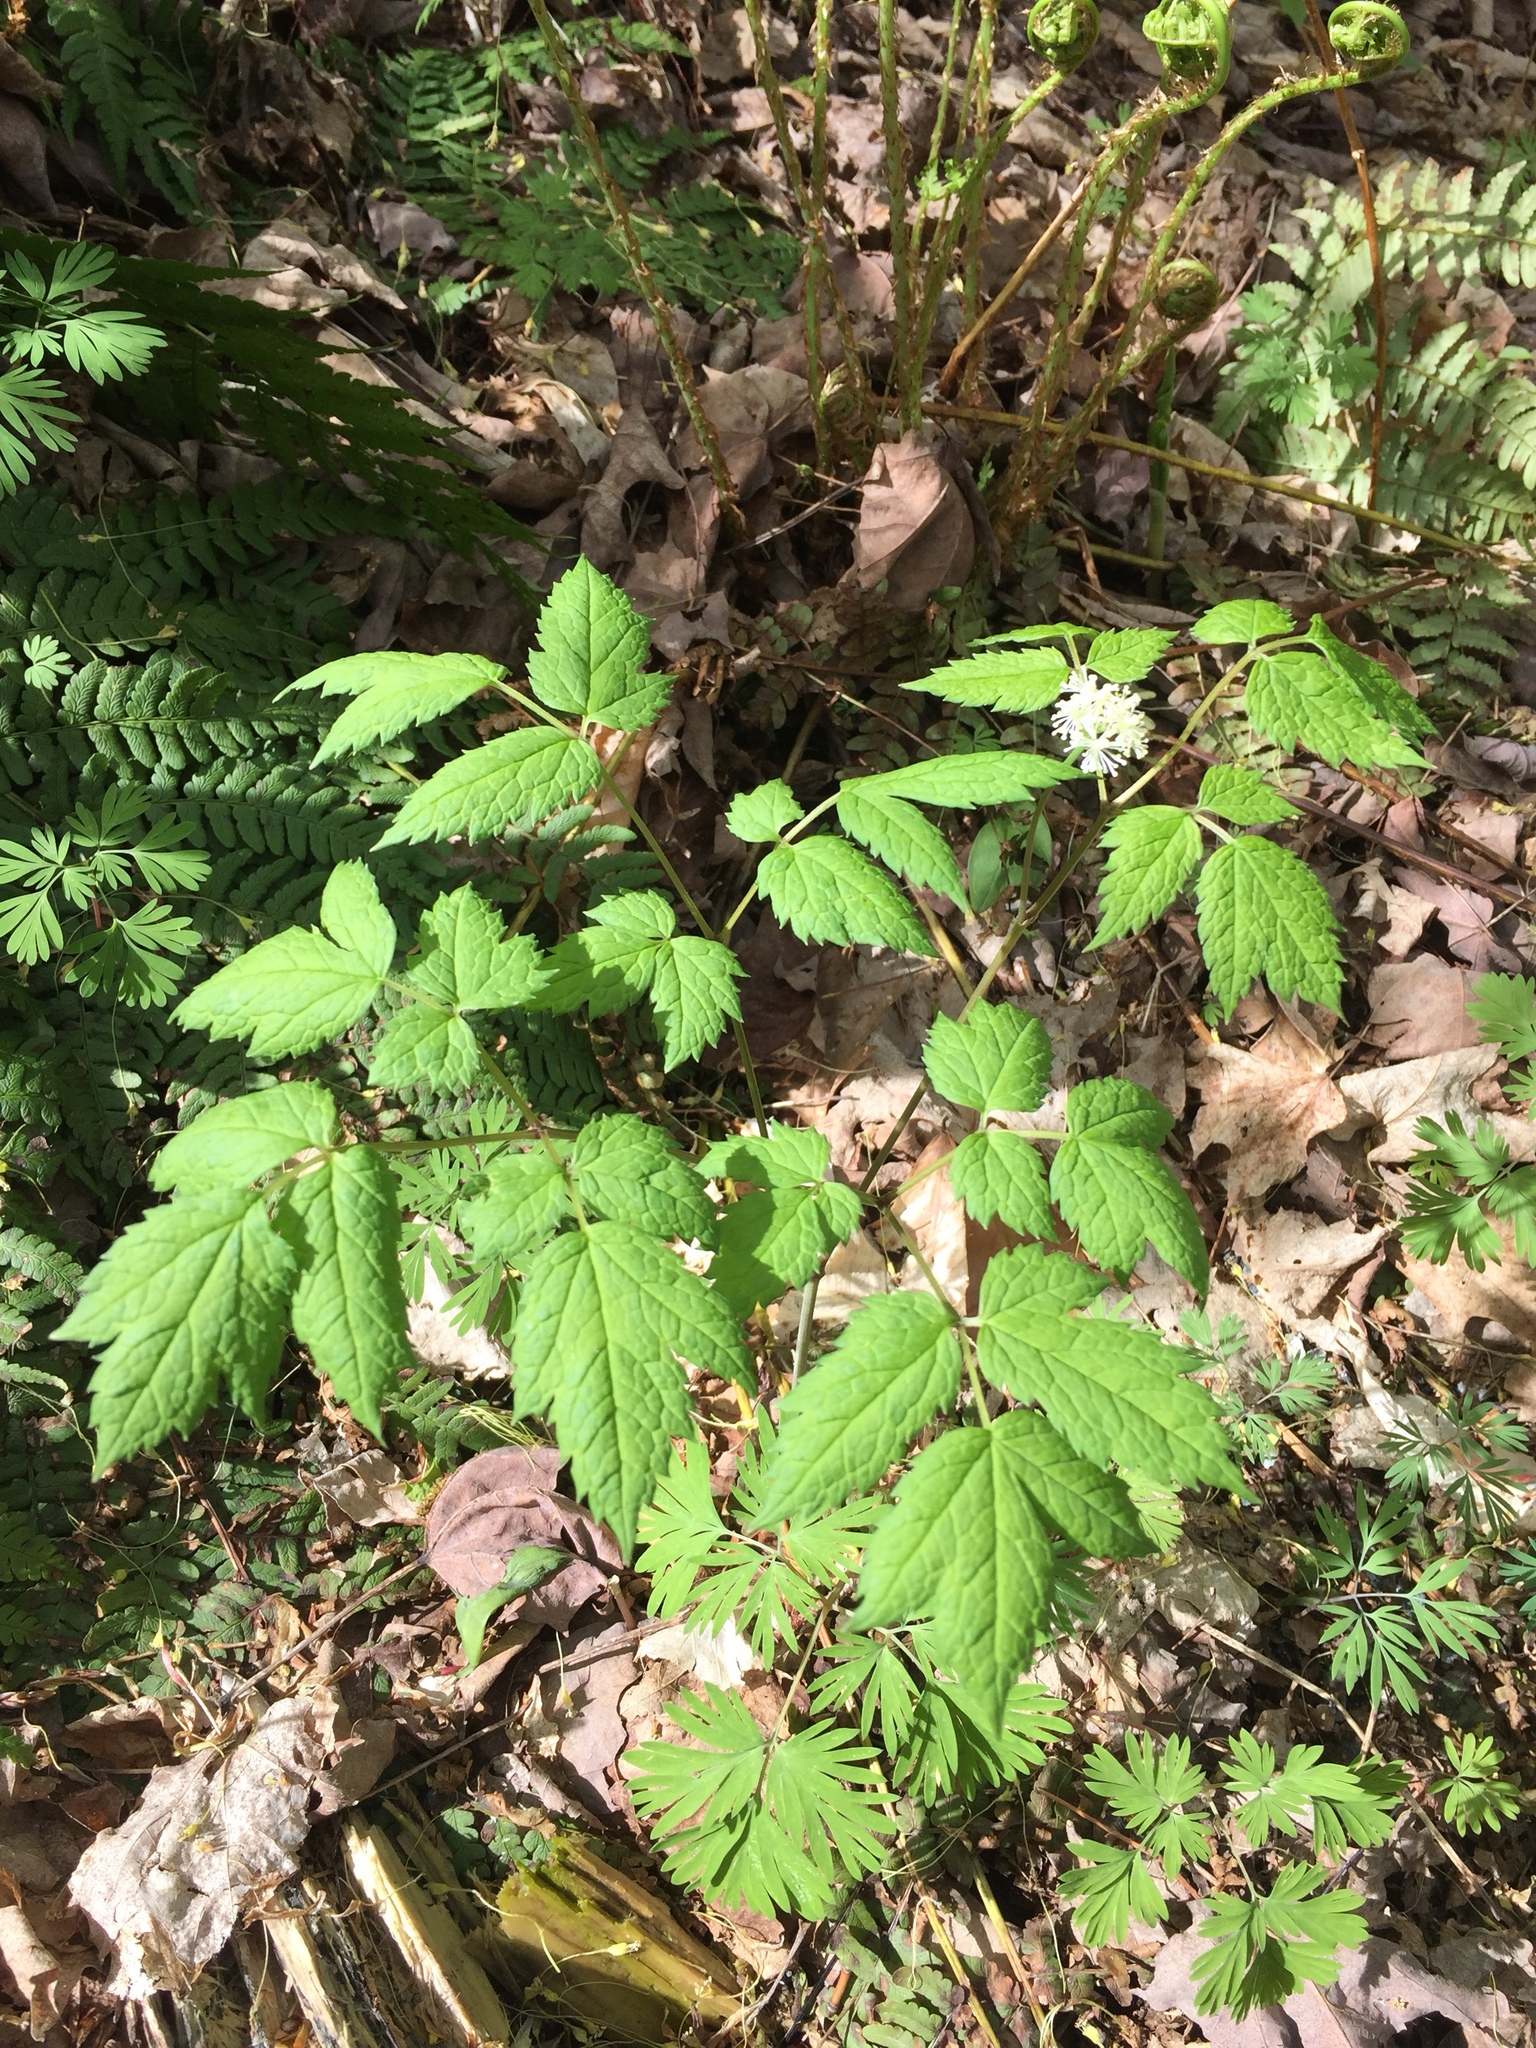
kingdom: Plantae
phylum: Tracheophyta
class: Magnoliopsida
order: Ranunculales
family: Ranunculaceae
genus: Actaea
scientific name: Actaea pachypoda
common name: Doll's-eyes
